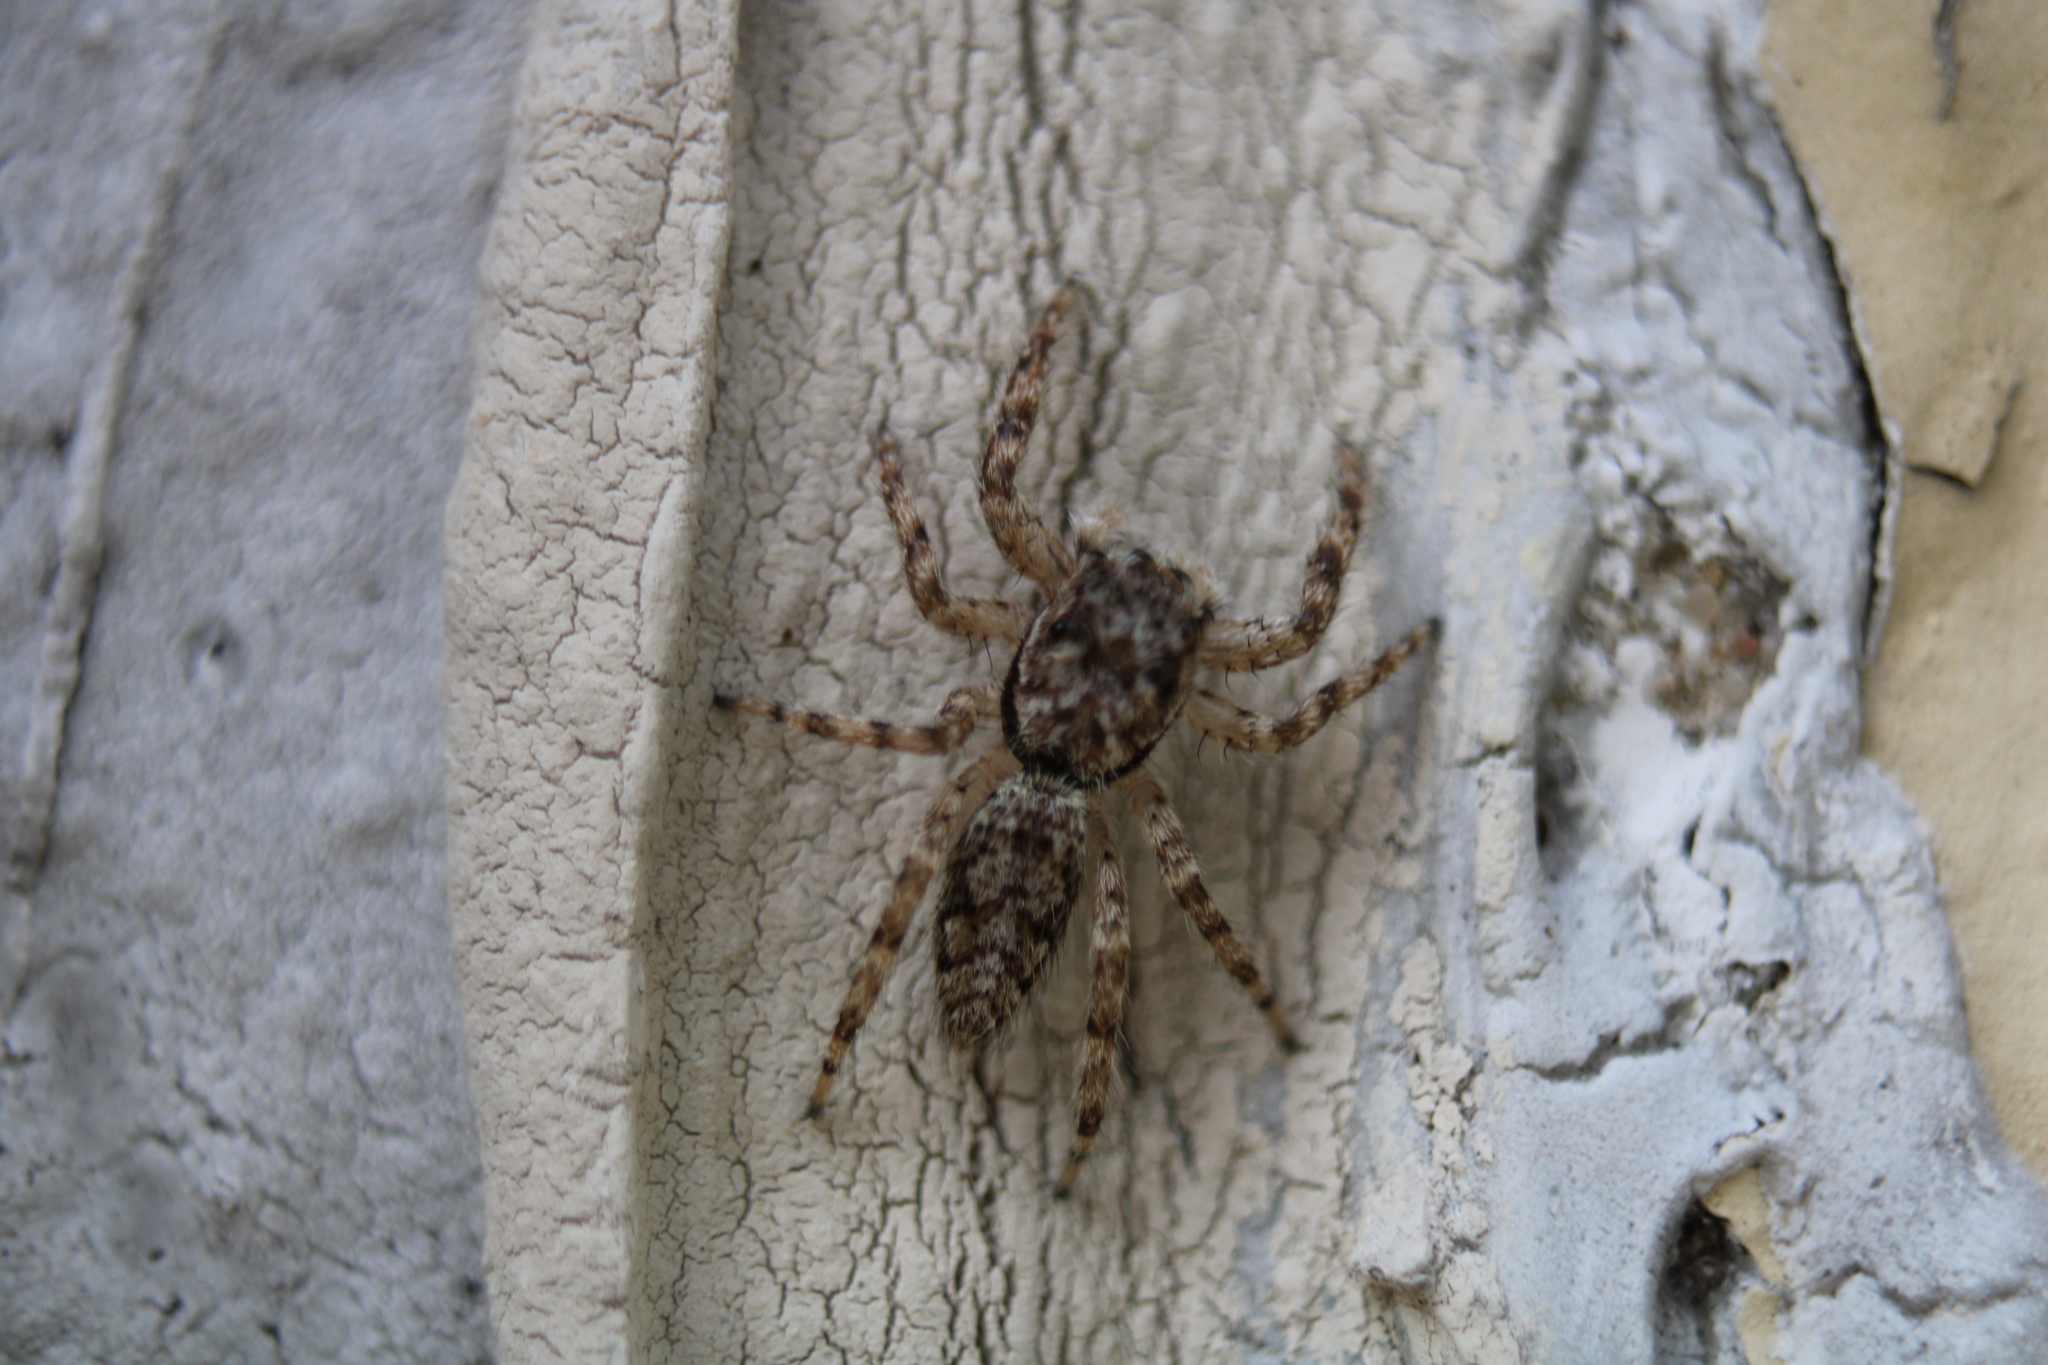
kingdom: Animalia
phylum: Arthropoda
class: Arachnida
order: Araneae
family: Salticidae
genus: Platycryptus
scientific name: Platycryptus undatus
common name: Tan jumping spider
